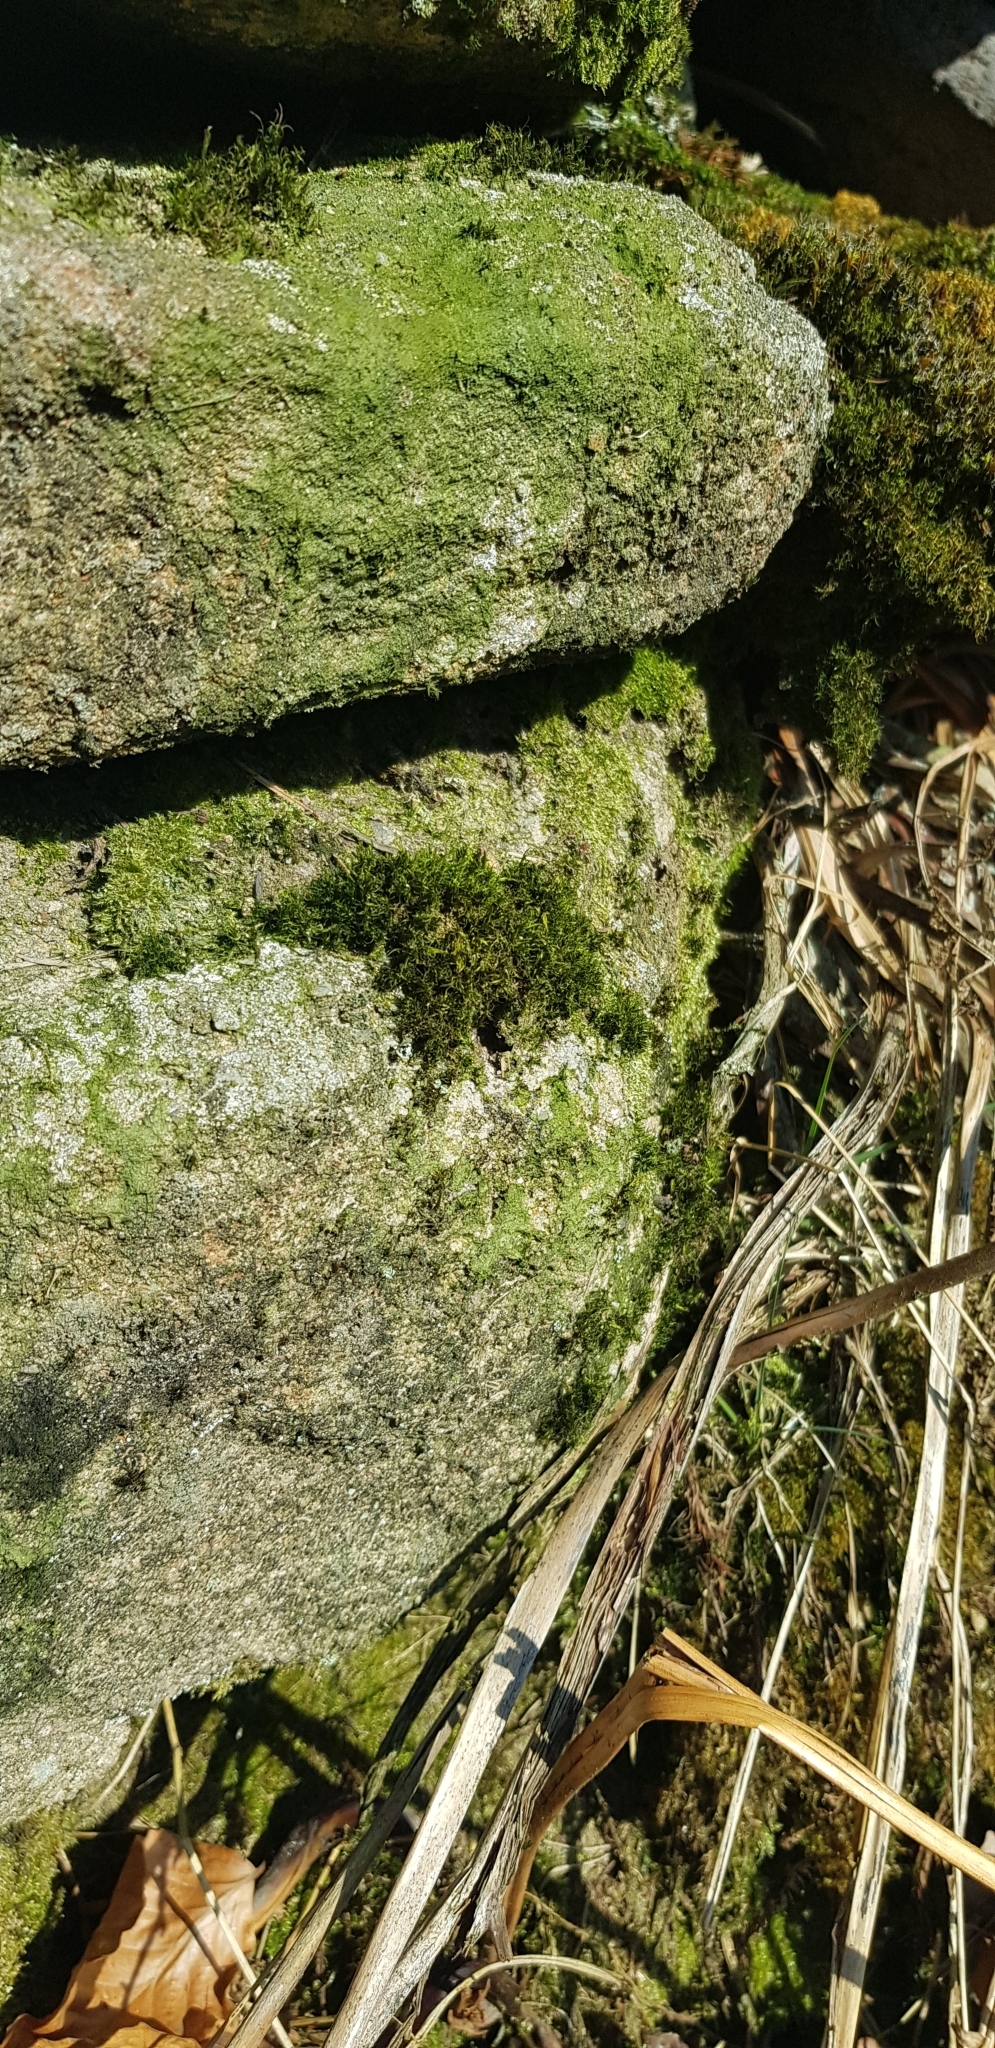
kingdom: Plantae
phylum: Bryophyta
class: Bryopsida
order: Dicranales
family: Leucobryaceae
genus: Campylopus
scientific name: Campylopus flexuosus
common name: Rusty swan-neck moss
